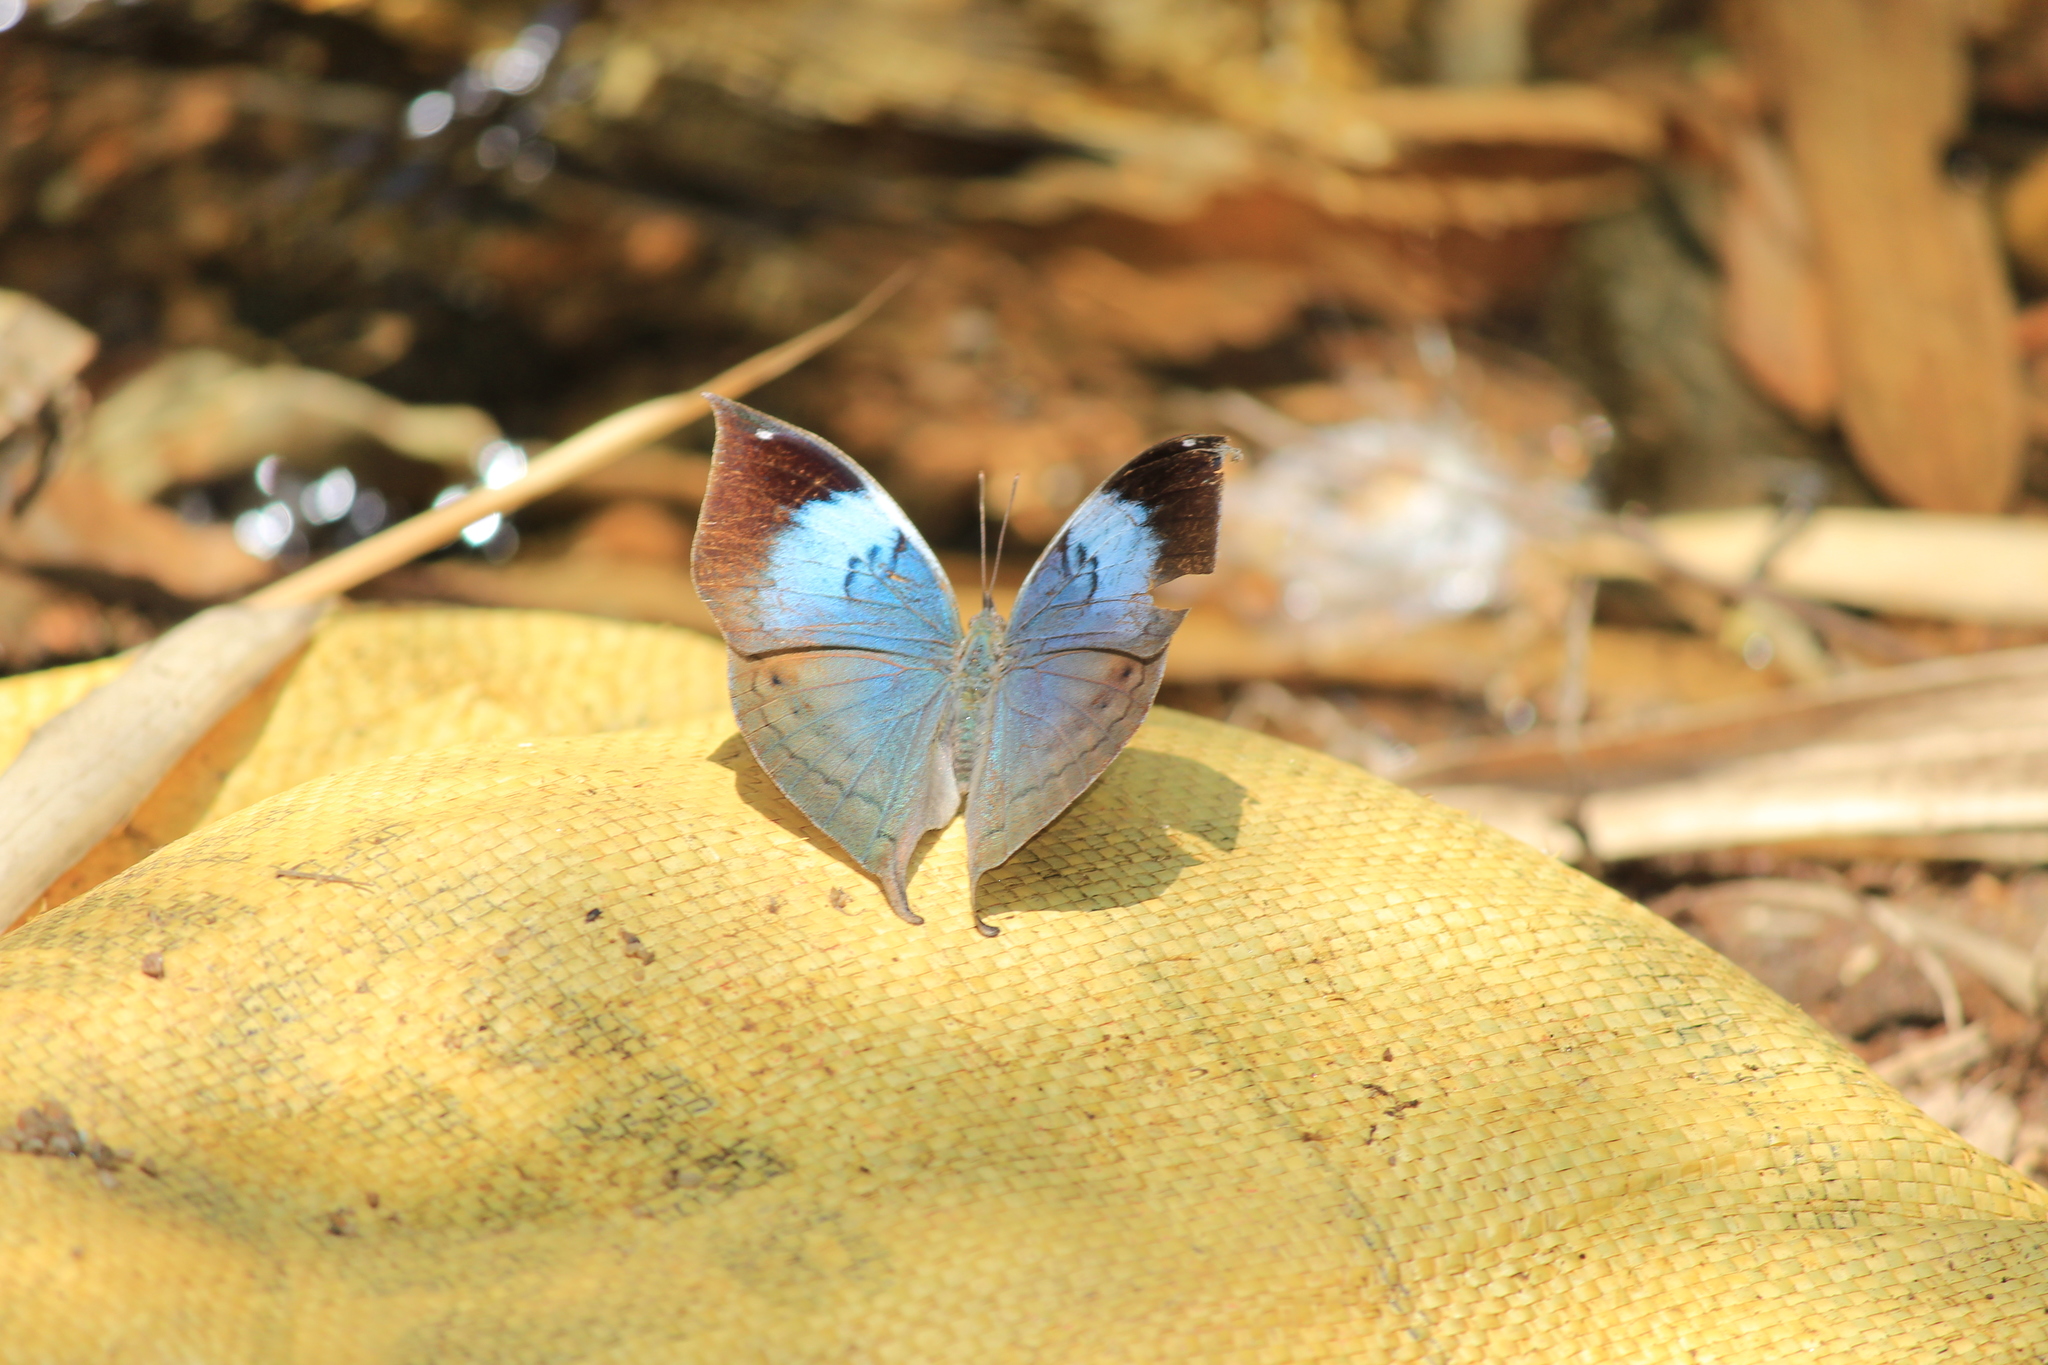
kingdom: Animalia
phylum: Arthropoda
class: Insecta
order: Lepidoptera
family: Nymphalidae
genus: Kallima
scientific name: Kallima horsfieldii
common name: Sahyadri blue oakleaf
